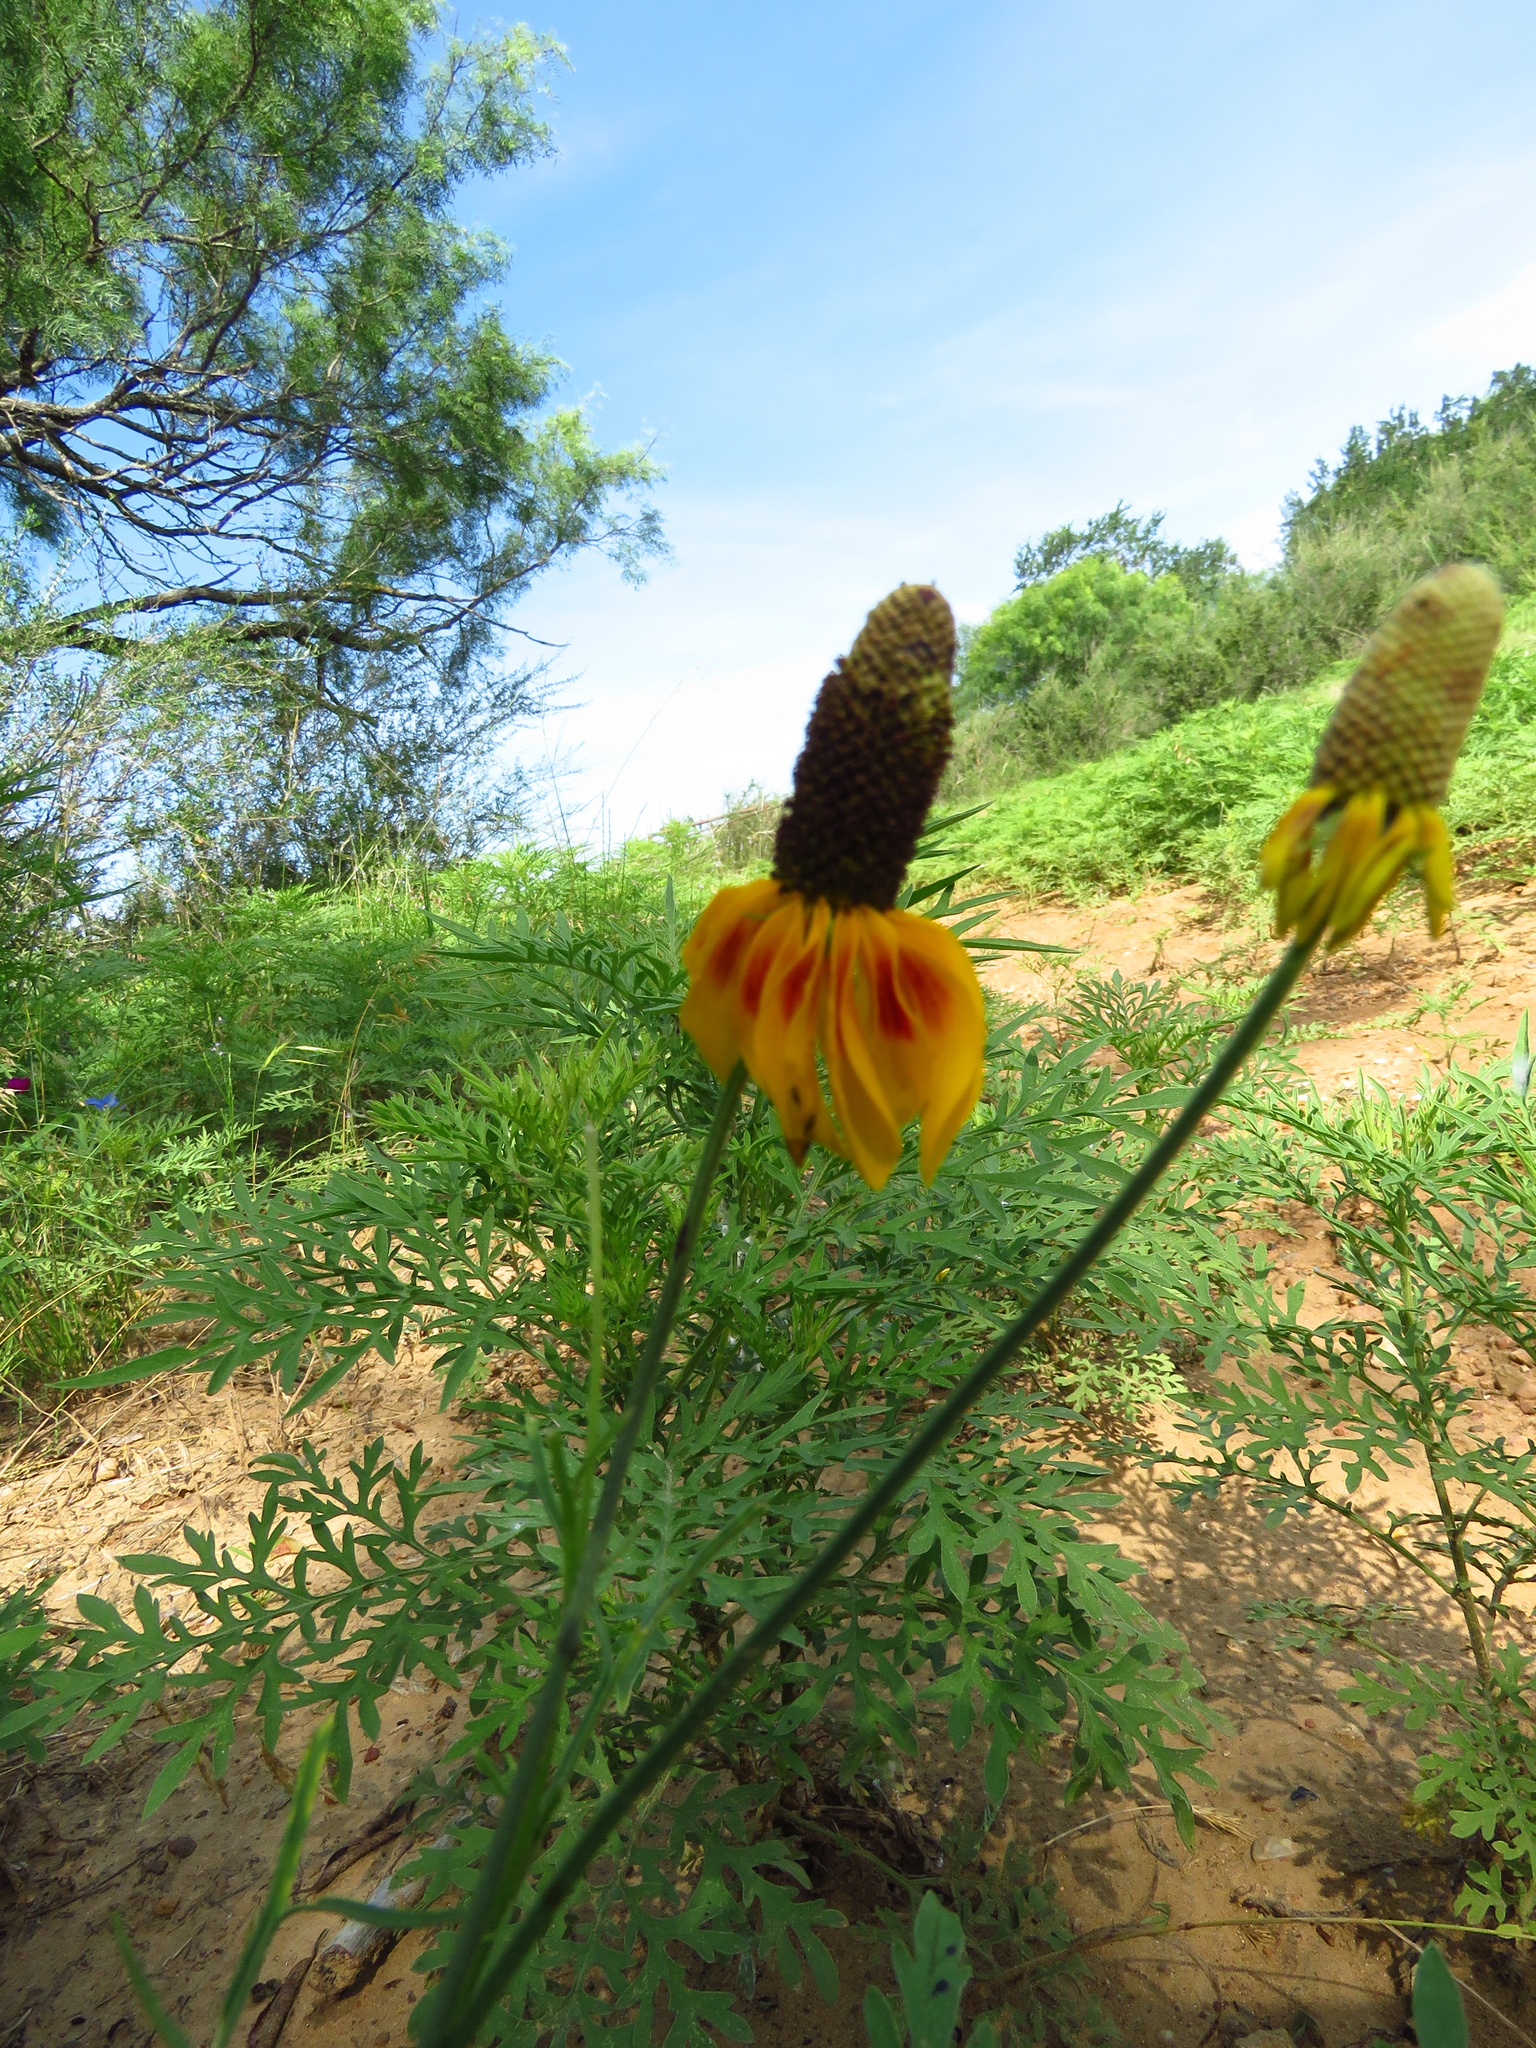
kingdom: Plantae
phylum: Tracheophyta
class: Magnoliopsida
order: Asterales
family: Asteraceae
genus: Ratibida
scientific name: Ratibida columnifera
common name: Prairie coneflower
